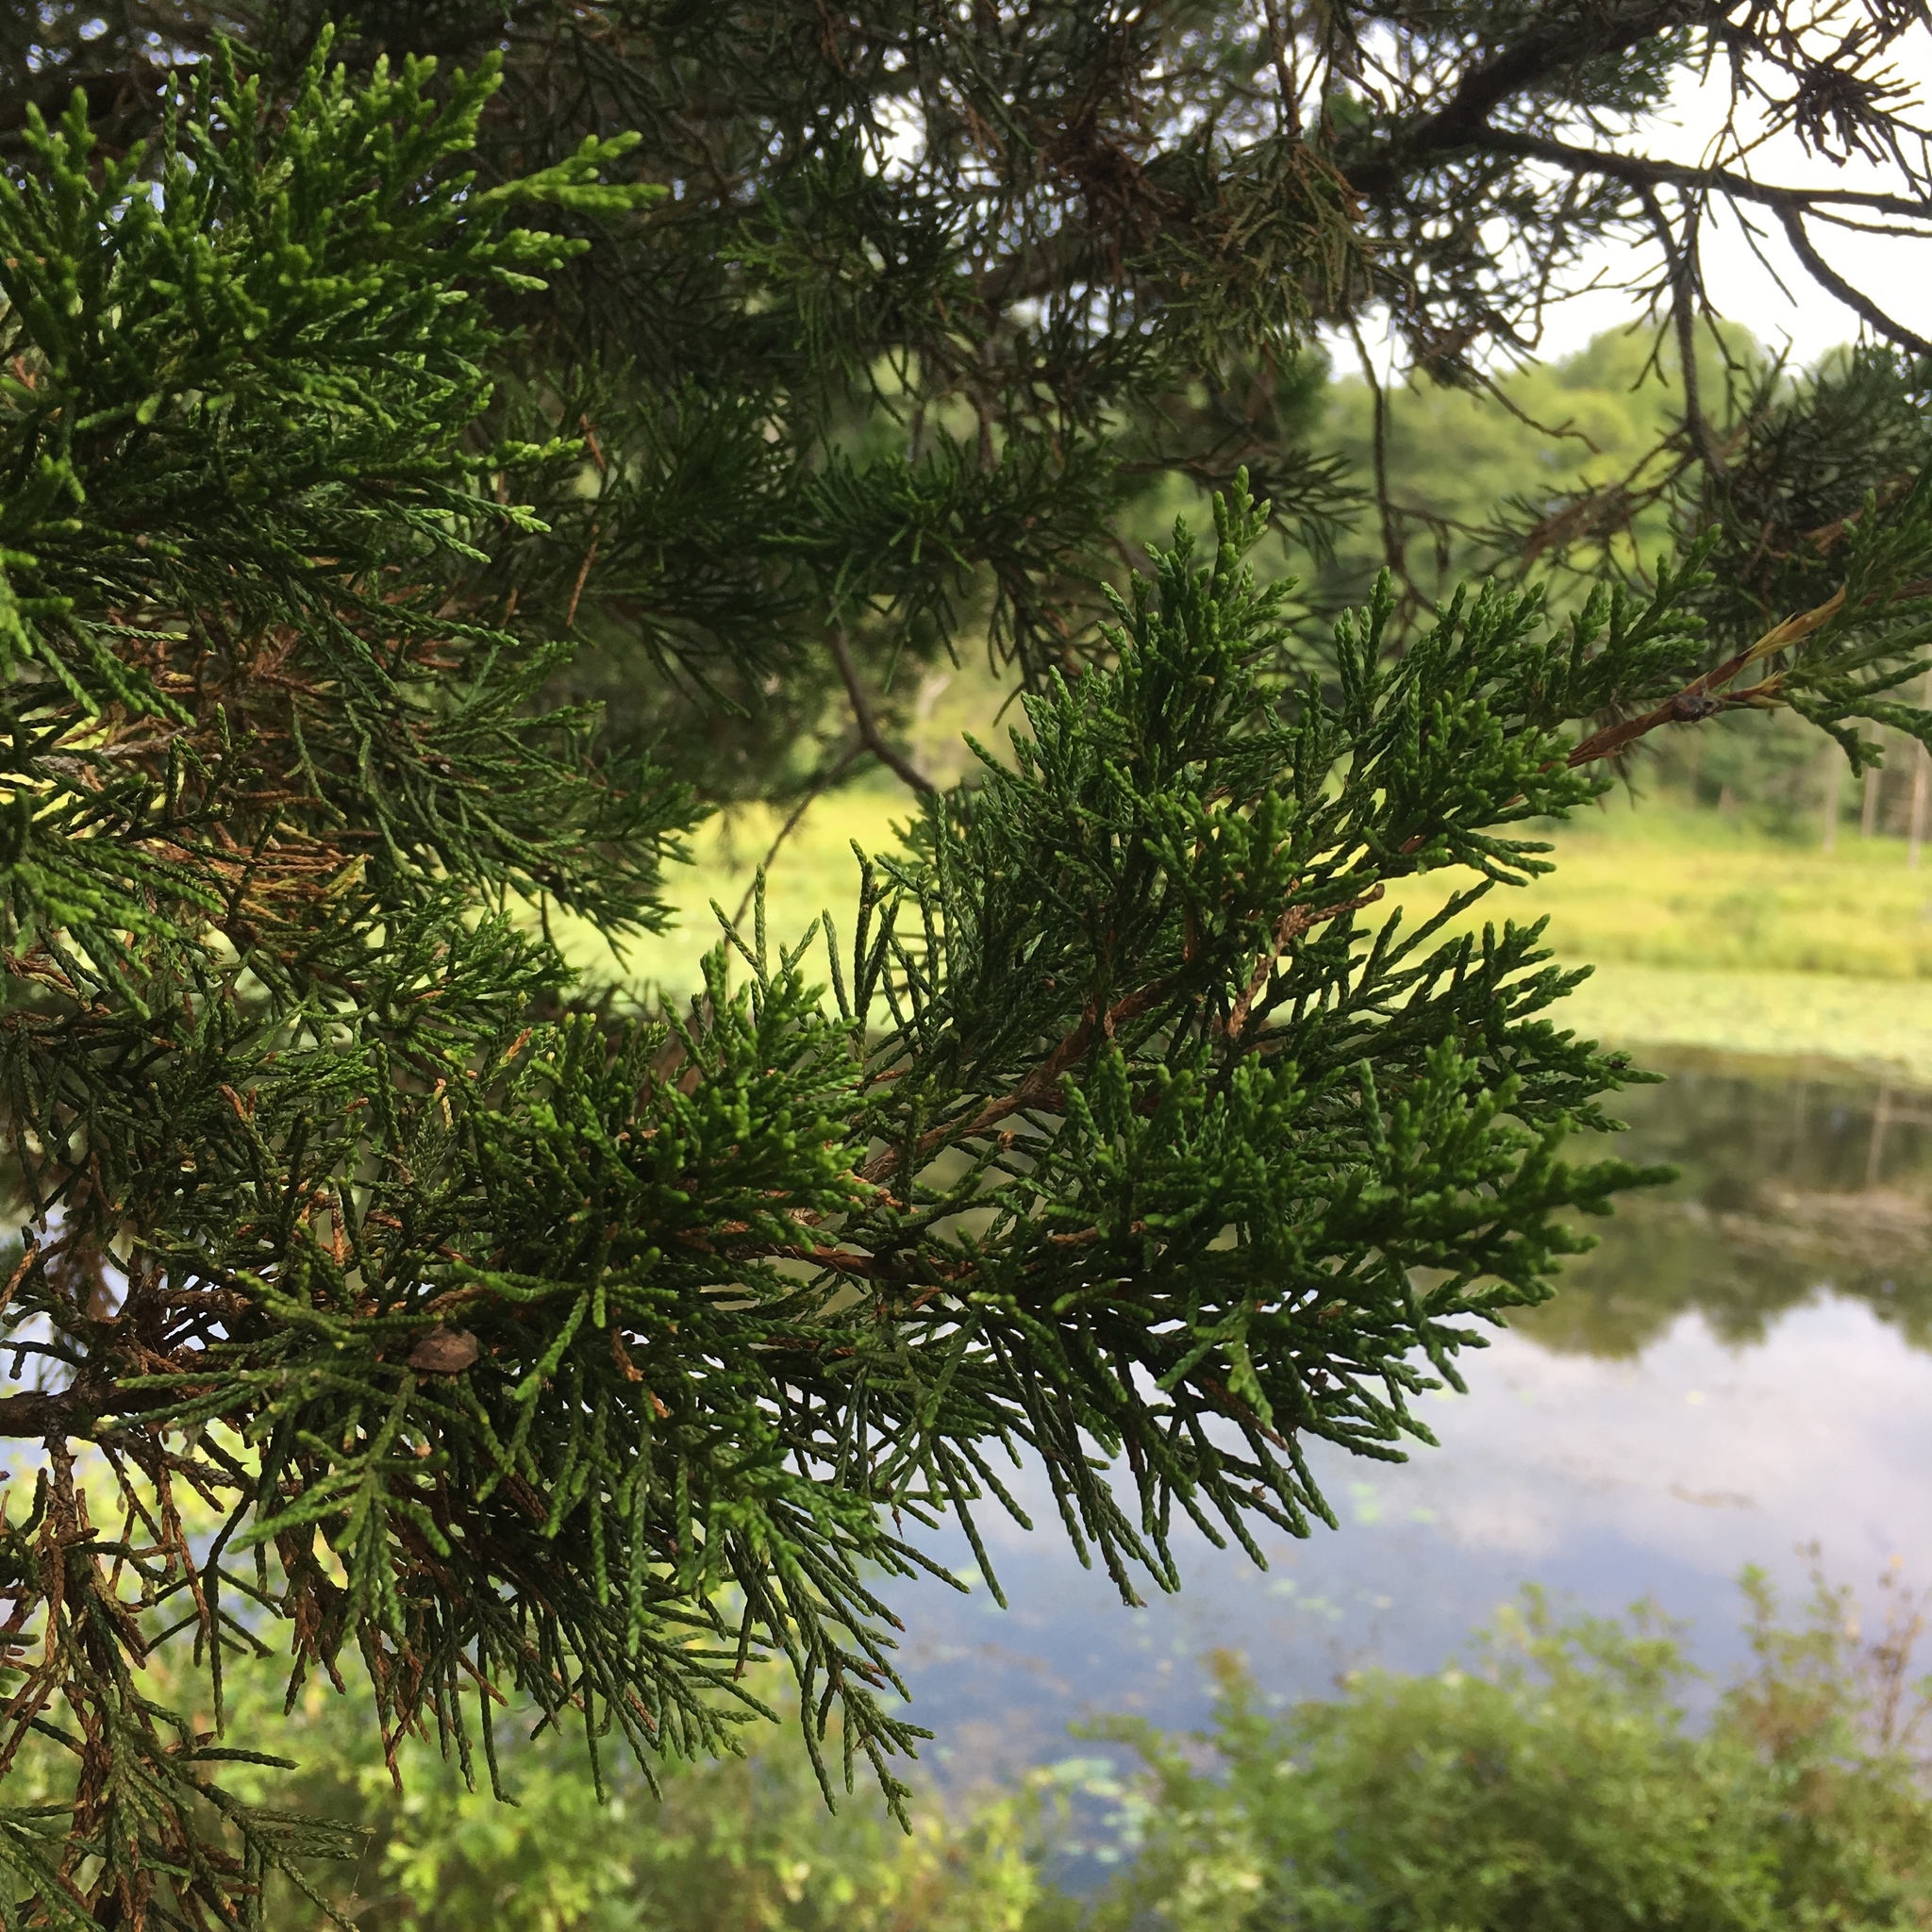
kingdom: Plantae
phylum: Tracheophyta
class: Pinopsida
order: Pinales
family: Cupressaceae
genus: Juniperus
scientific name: Juniperus virginiana
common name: Red juniper
